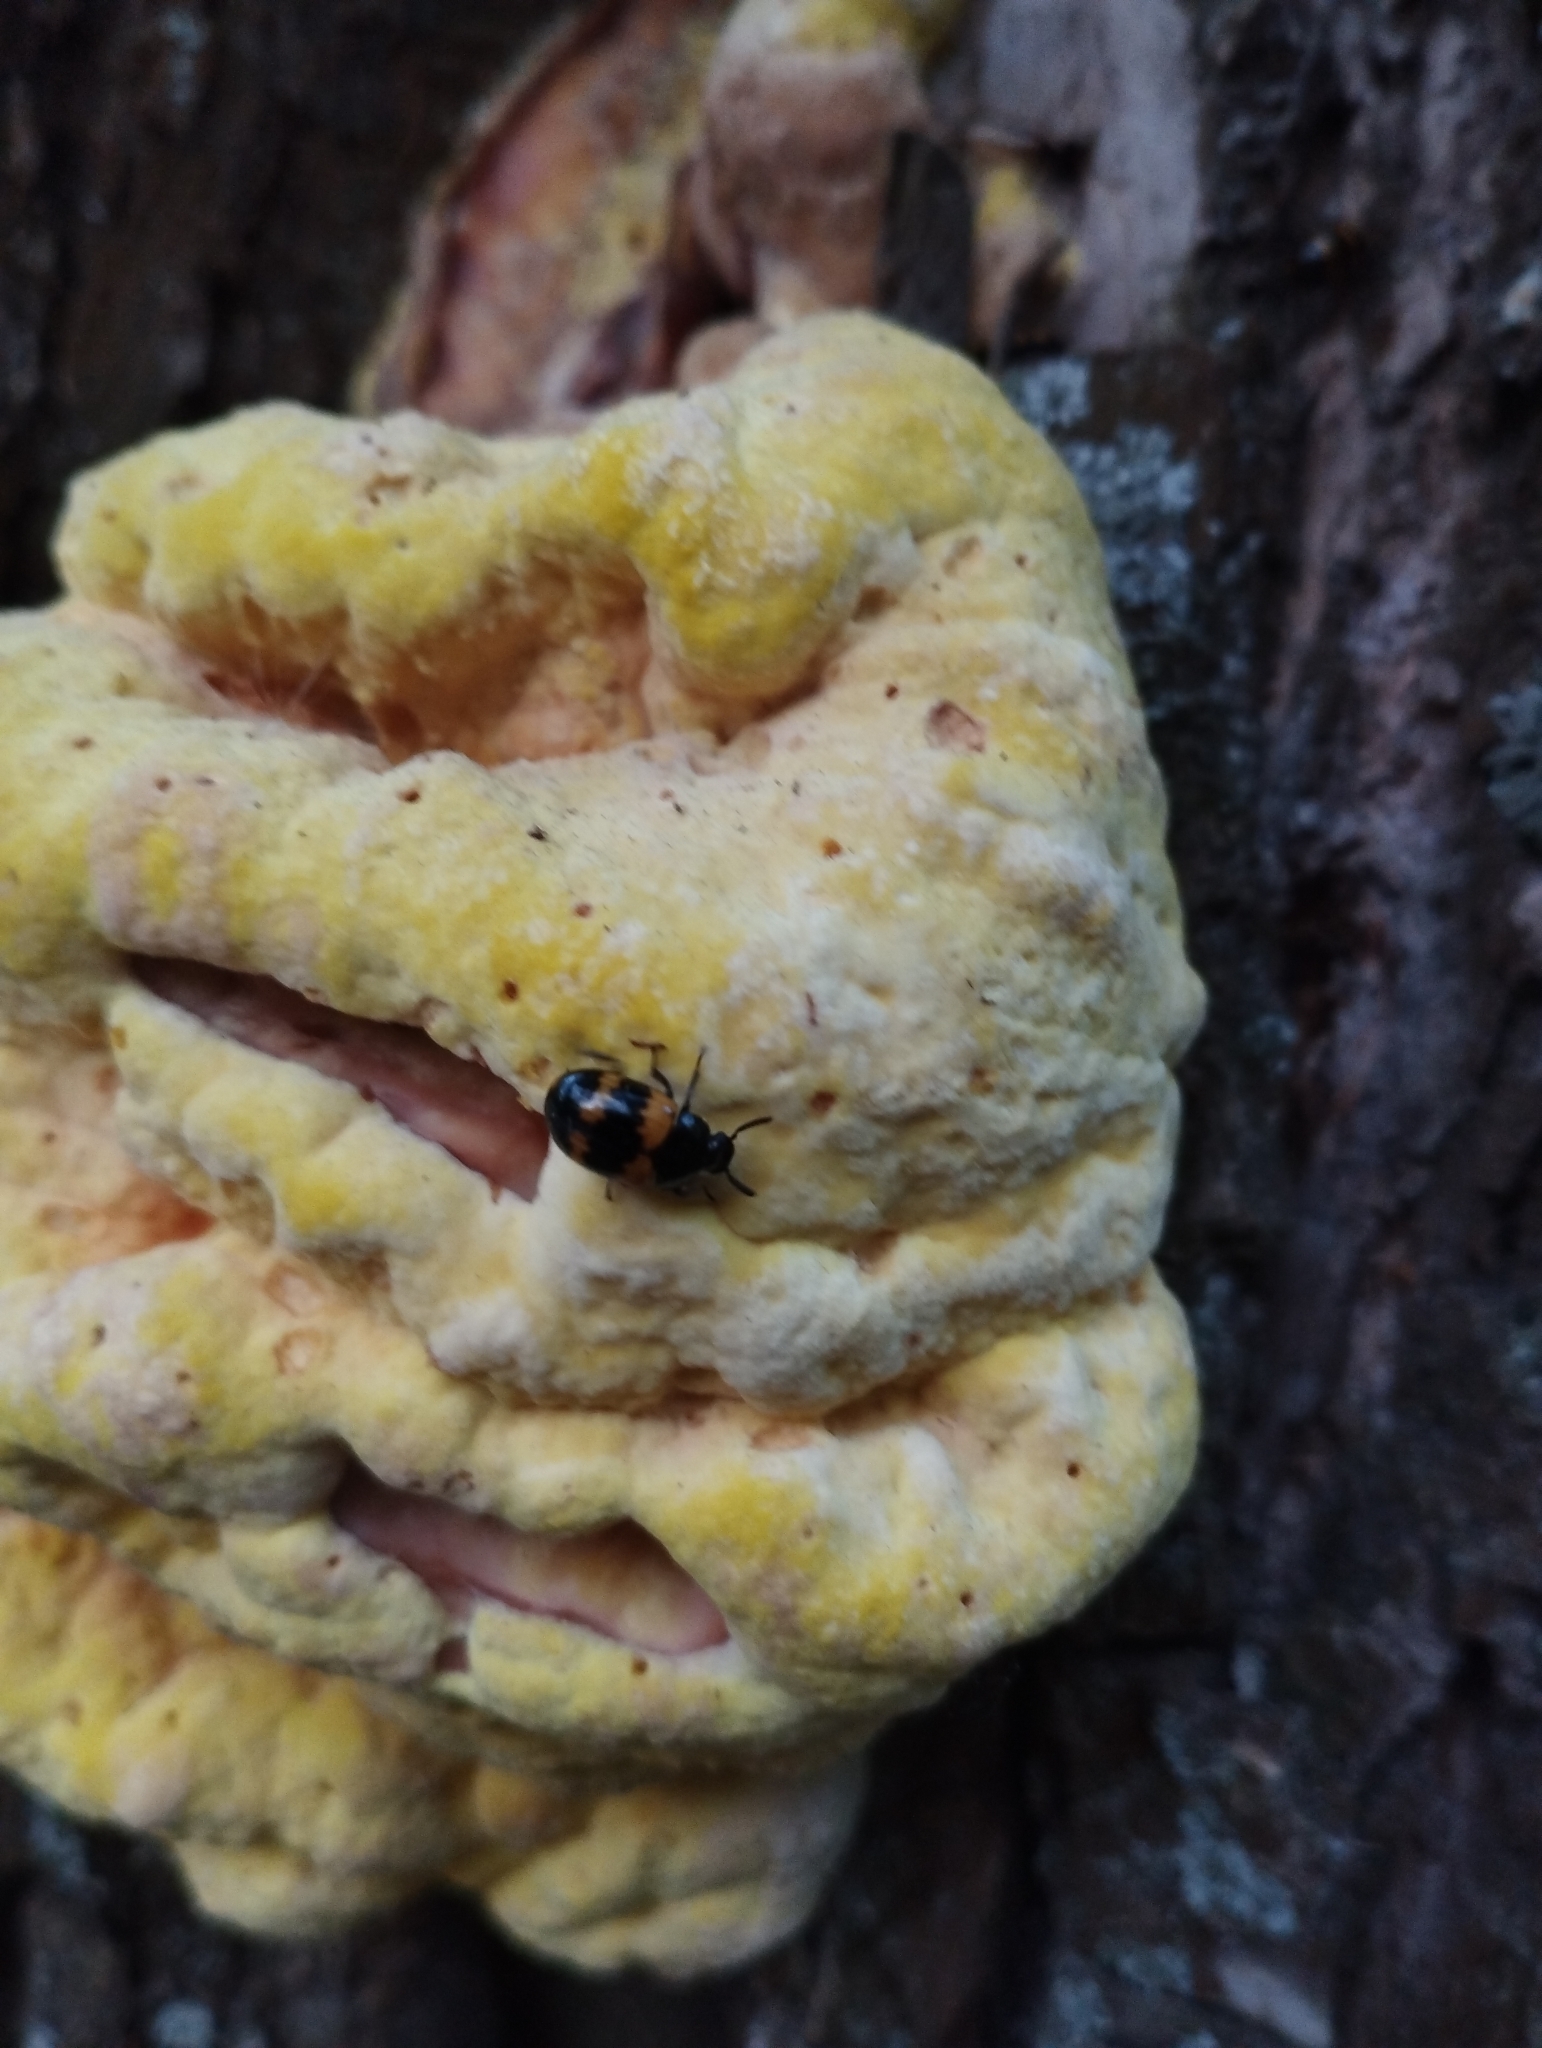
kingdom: Animalia
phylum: Arthropoda
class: Insecta
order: Coleoptera
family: Tenebrionidae
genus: Diaperis
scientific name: Diaperis boleti
